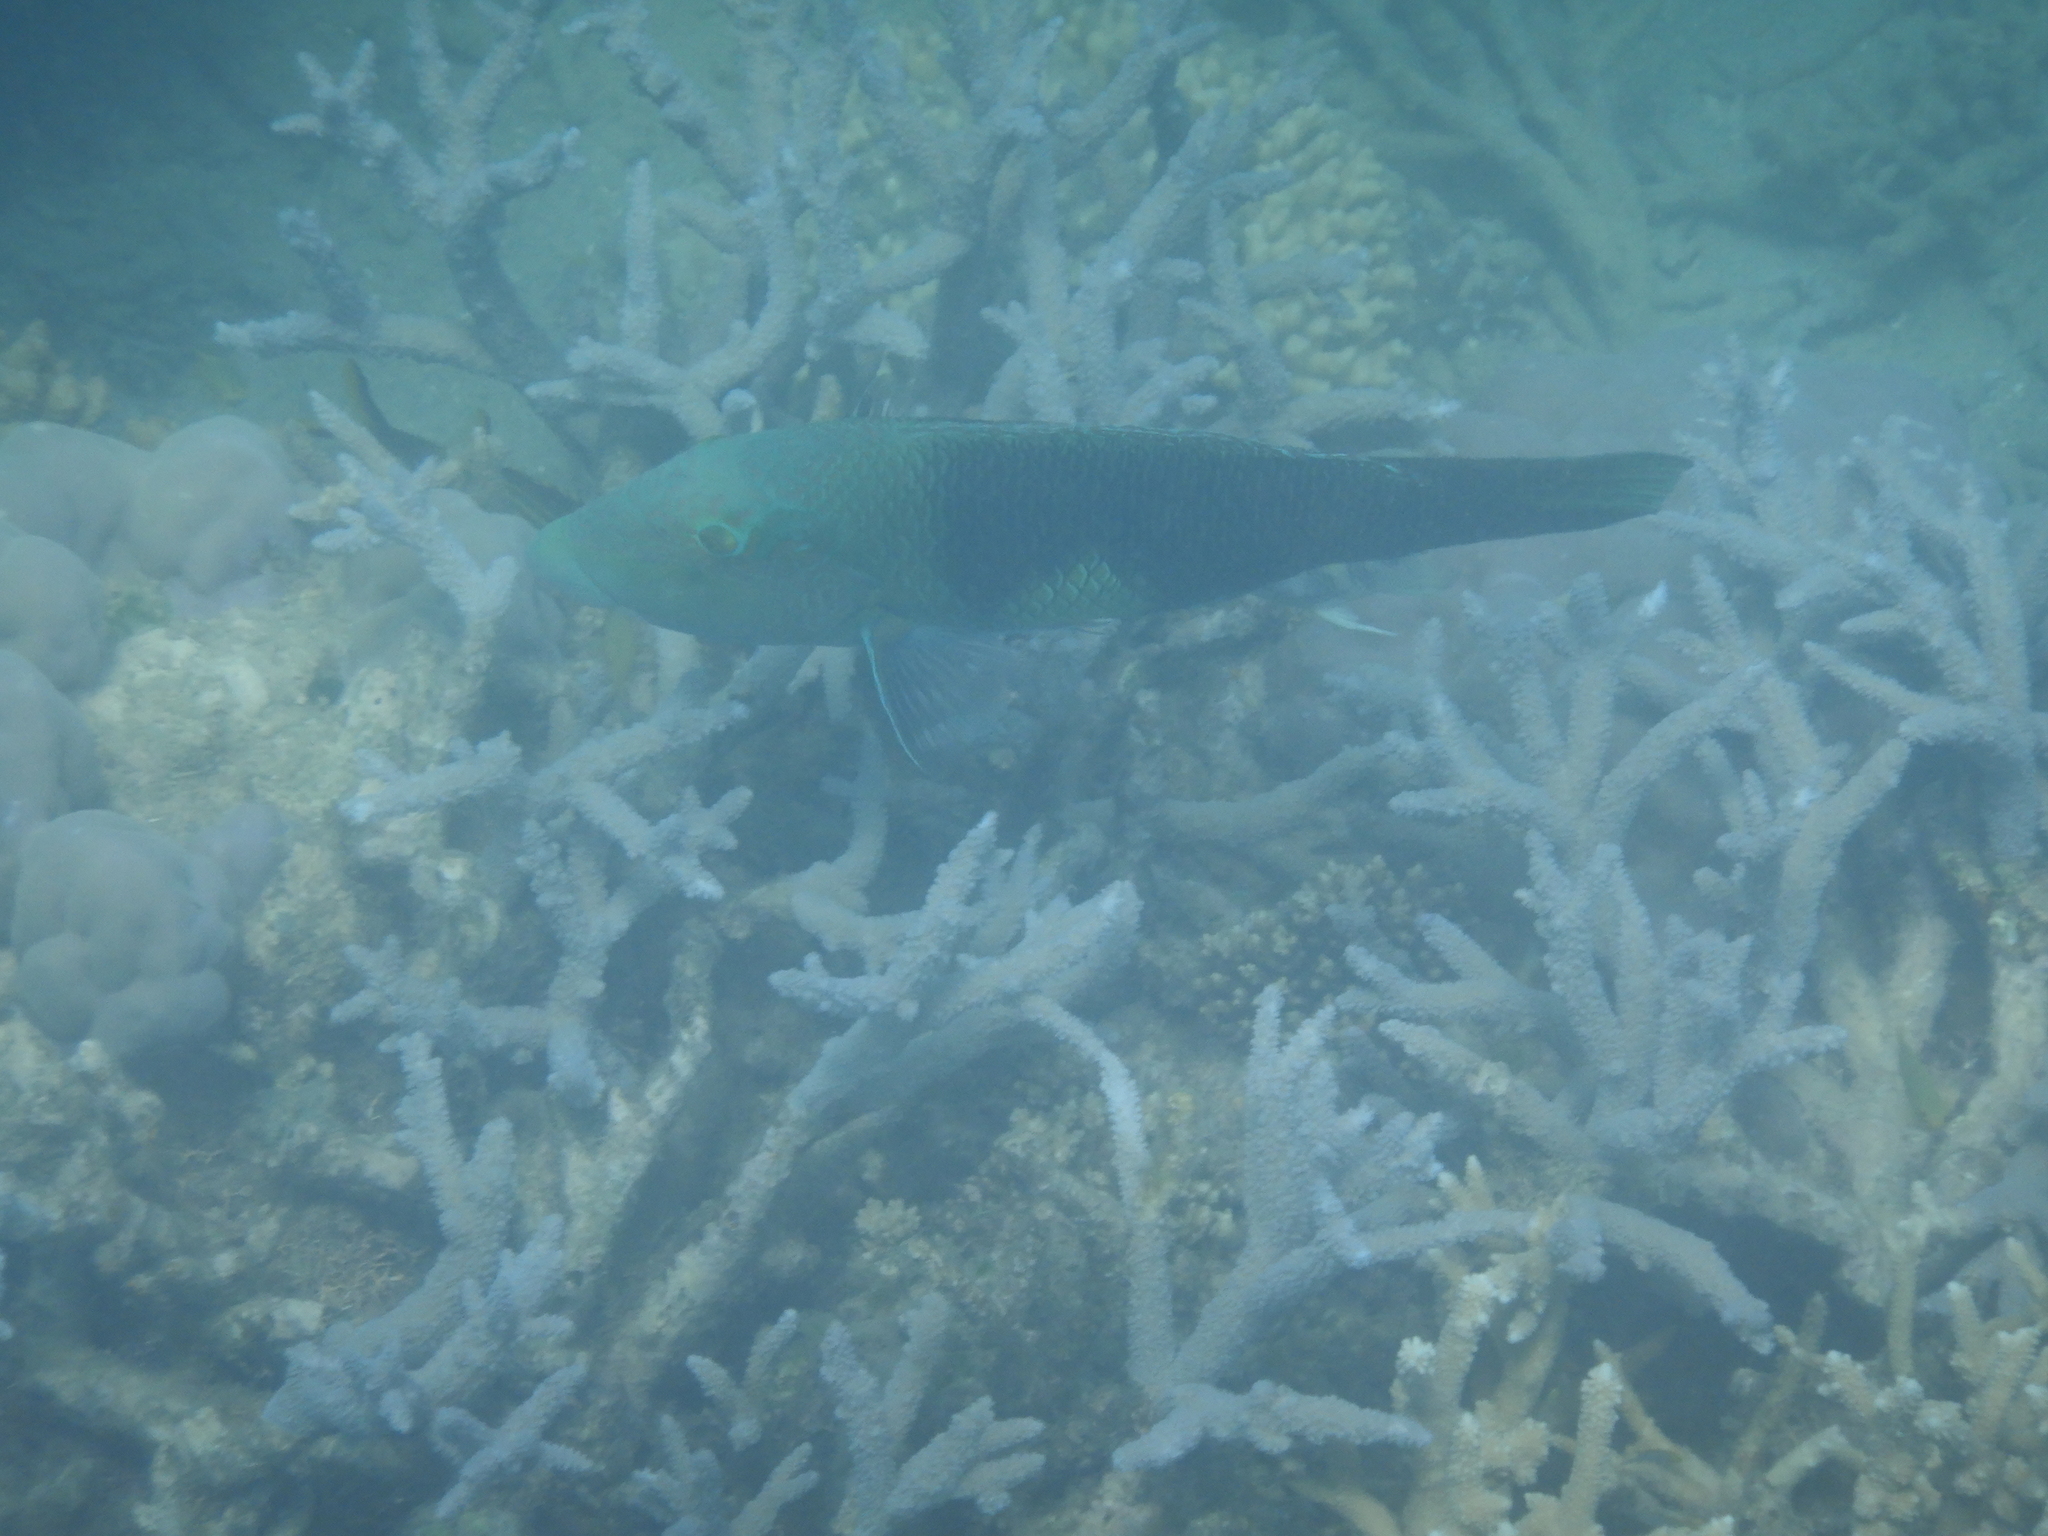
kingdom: Animalia
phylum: Chordata
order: Perciformes
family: Labridae
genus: Hemigymnus
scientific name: Hemigymnus melapterus
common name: Blackeye thicklip
